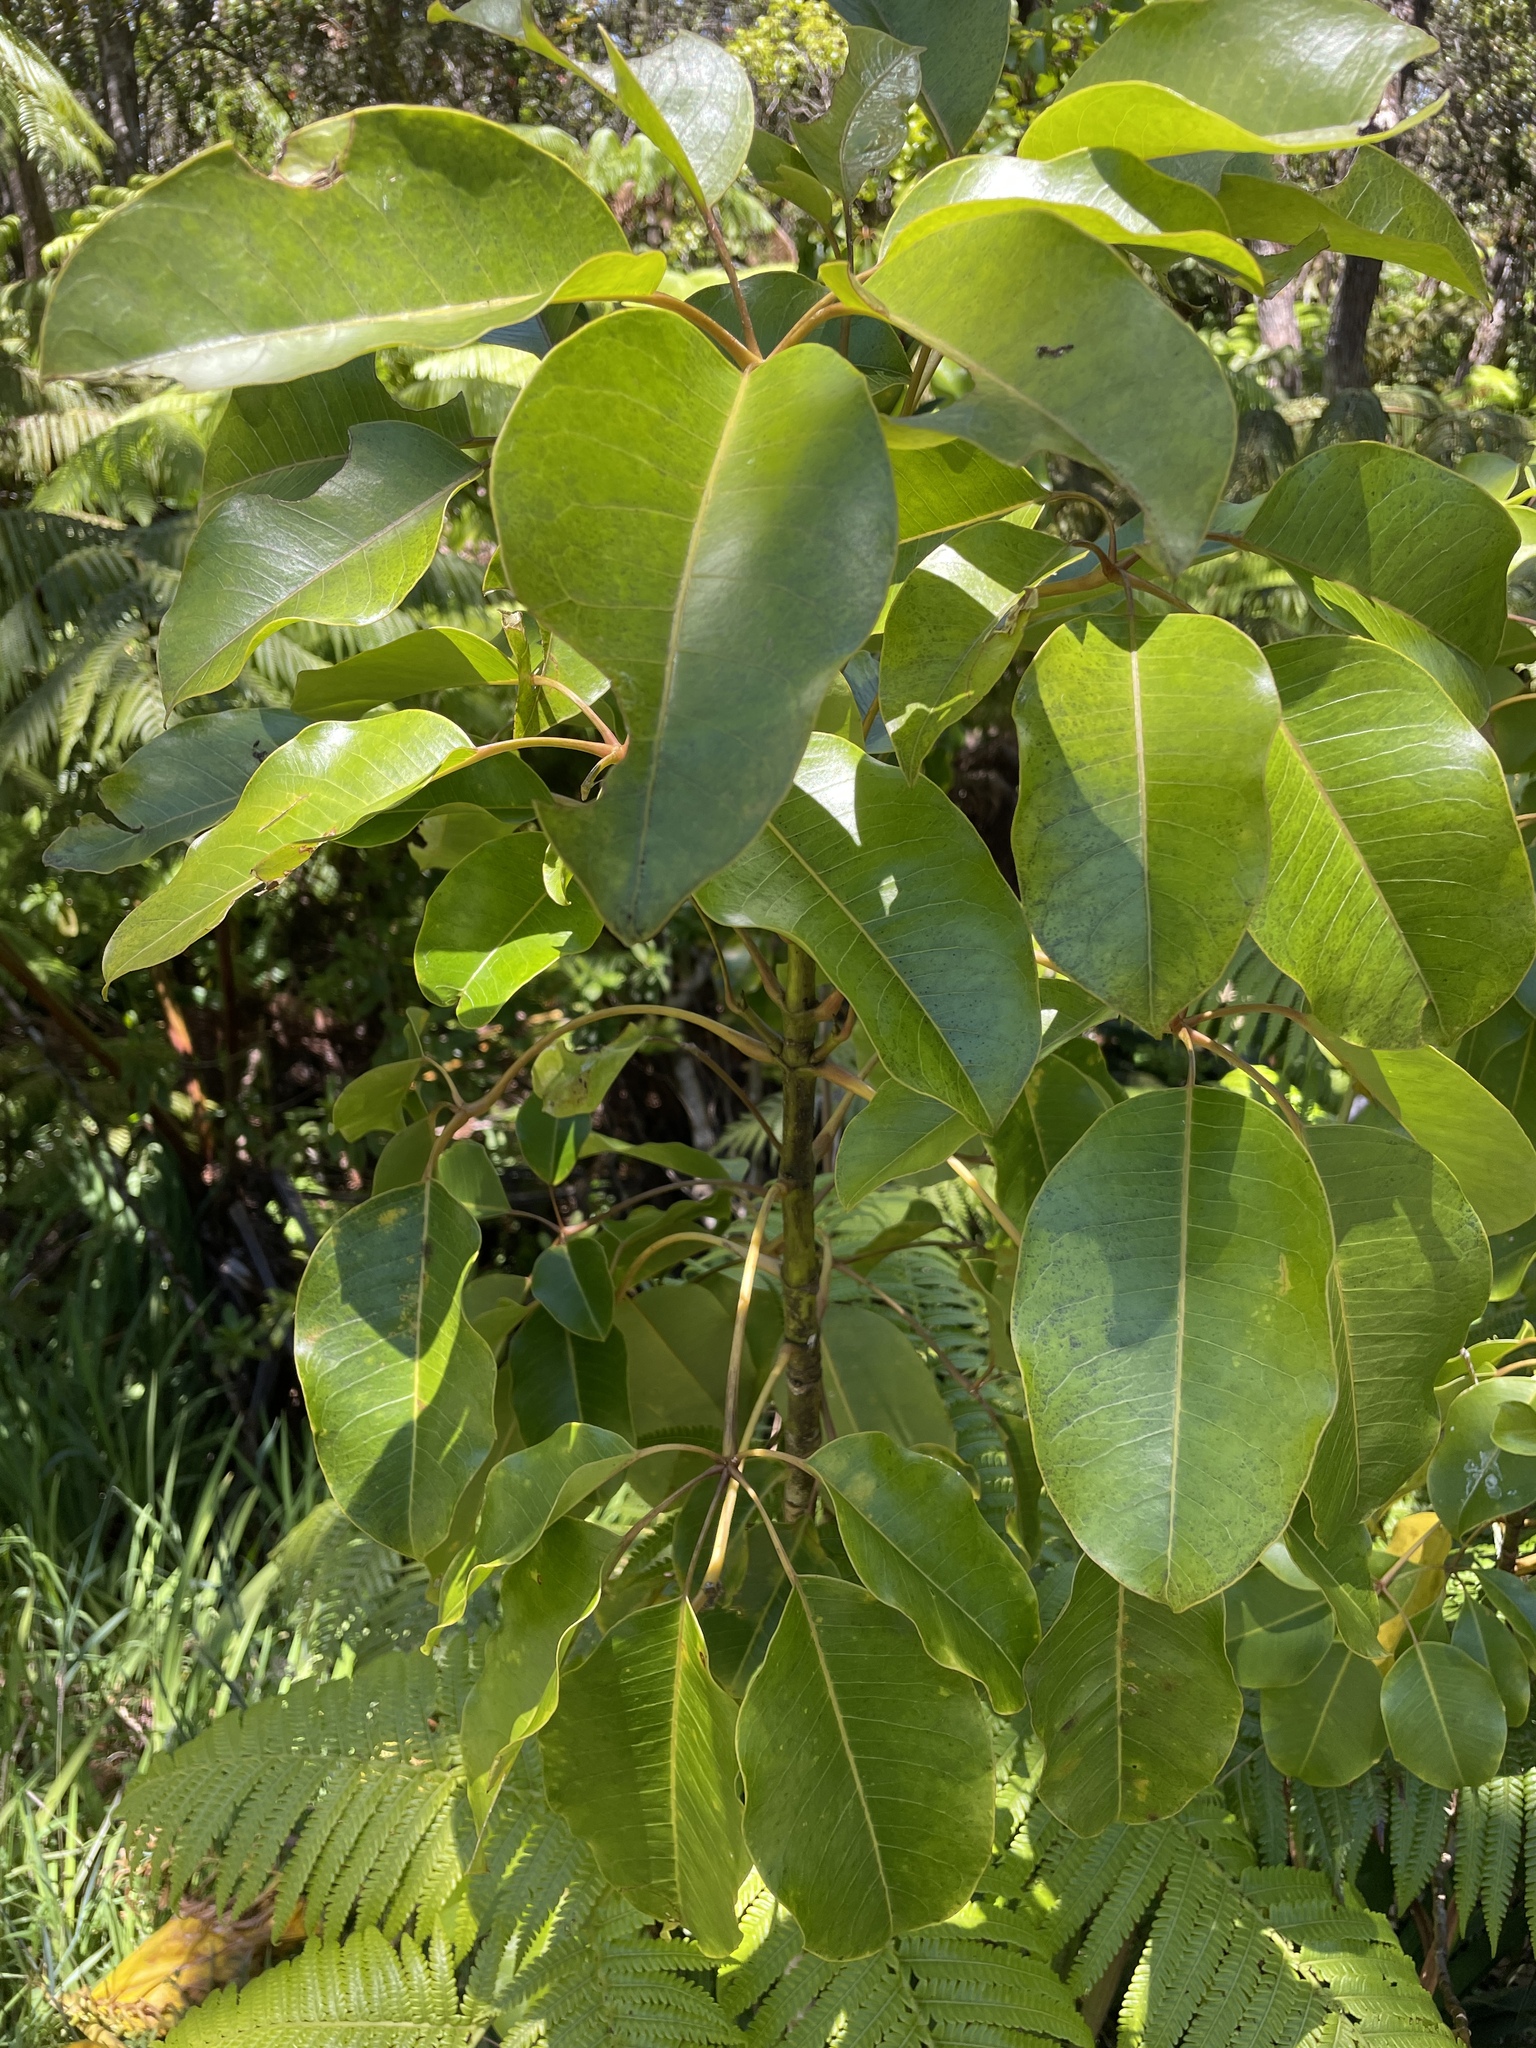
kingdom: Plantae
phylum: Tracheophyta
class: Magnoliopsida
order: Apiales
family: Araliaceae
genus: Cheirodendron
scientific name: Cheirodendron trigynum
